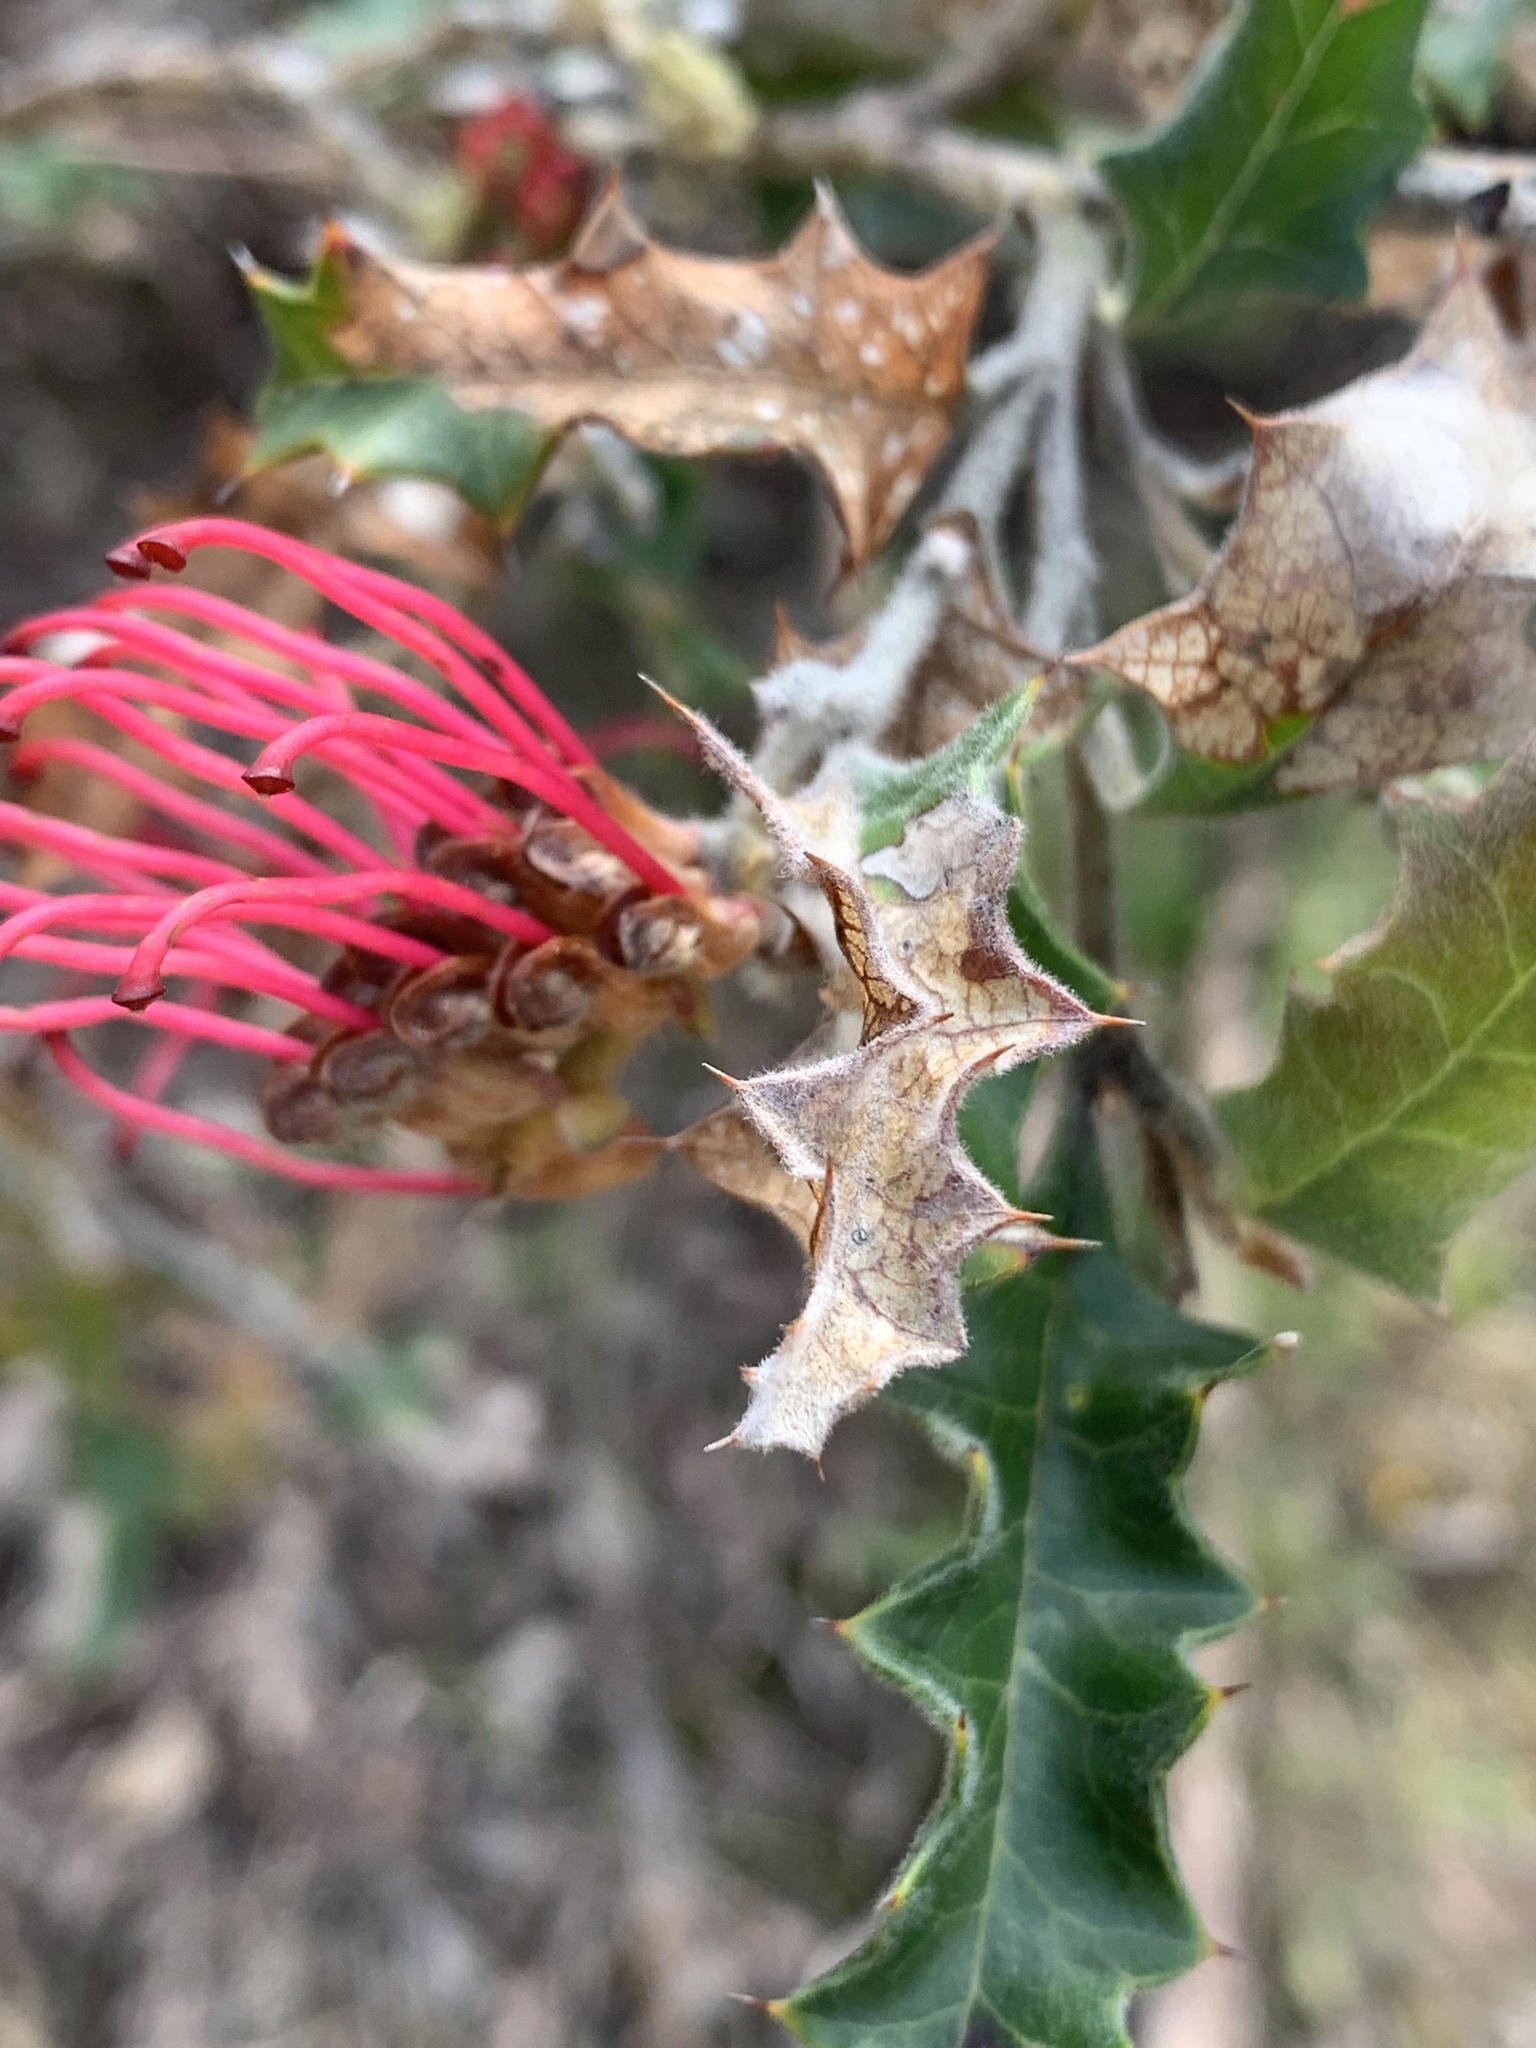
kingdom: Plantae
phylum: Tracheophyta
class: Magnoliopsida
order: Proteales
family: Proteaceae
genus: Grevillea
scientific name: Grevillea aquifolium
